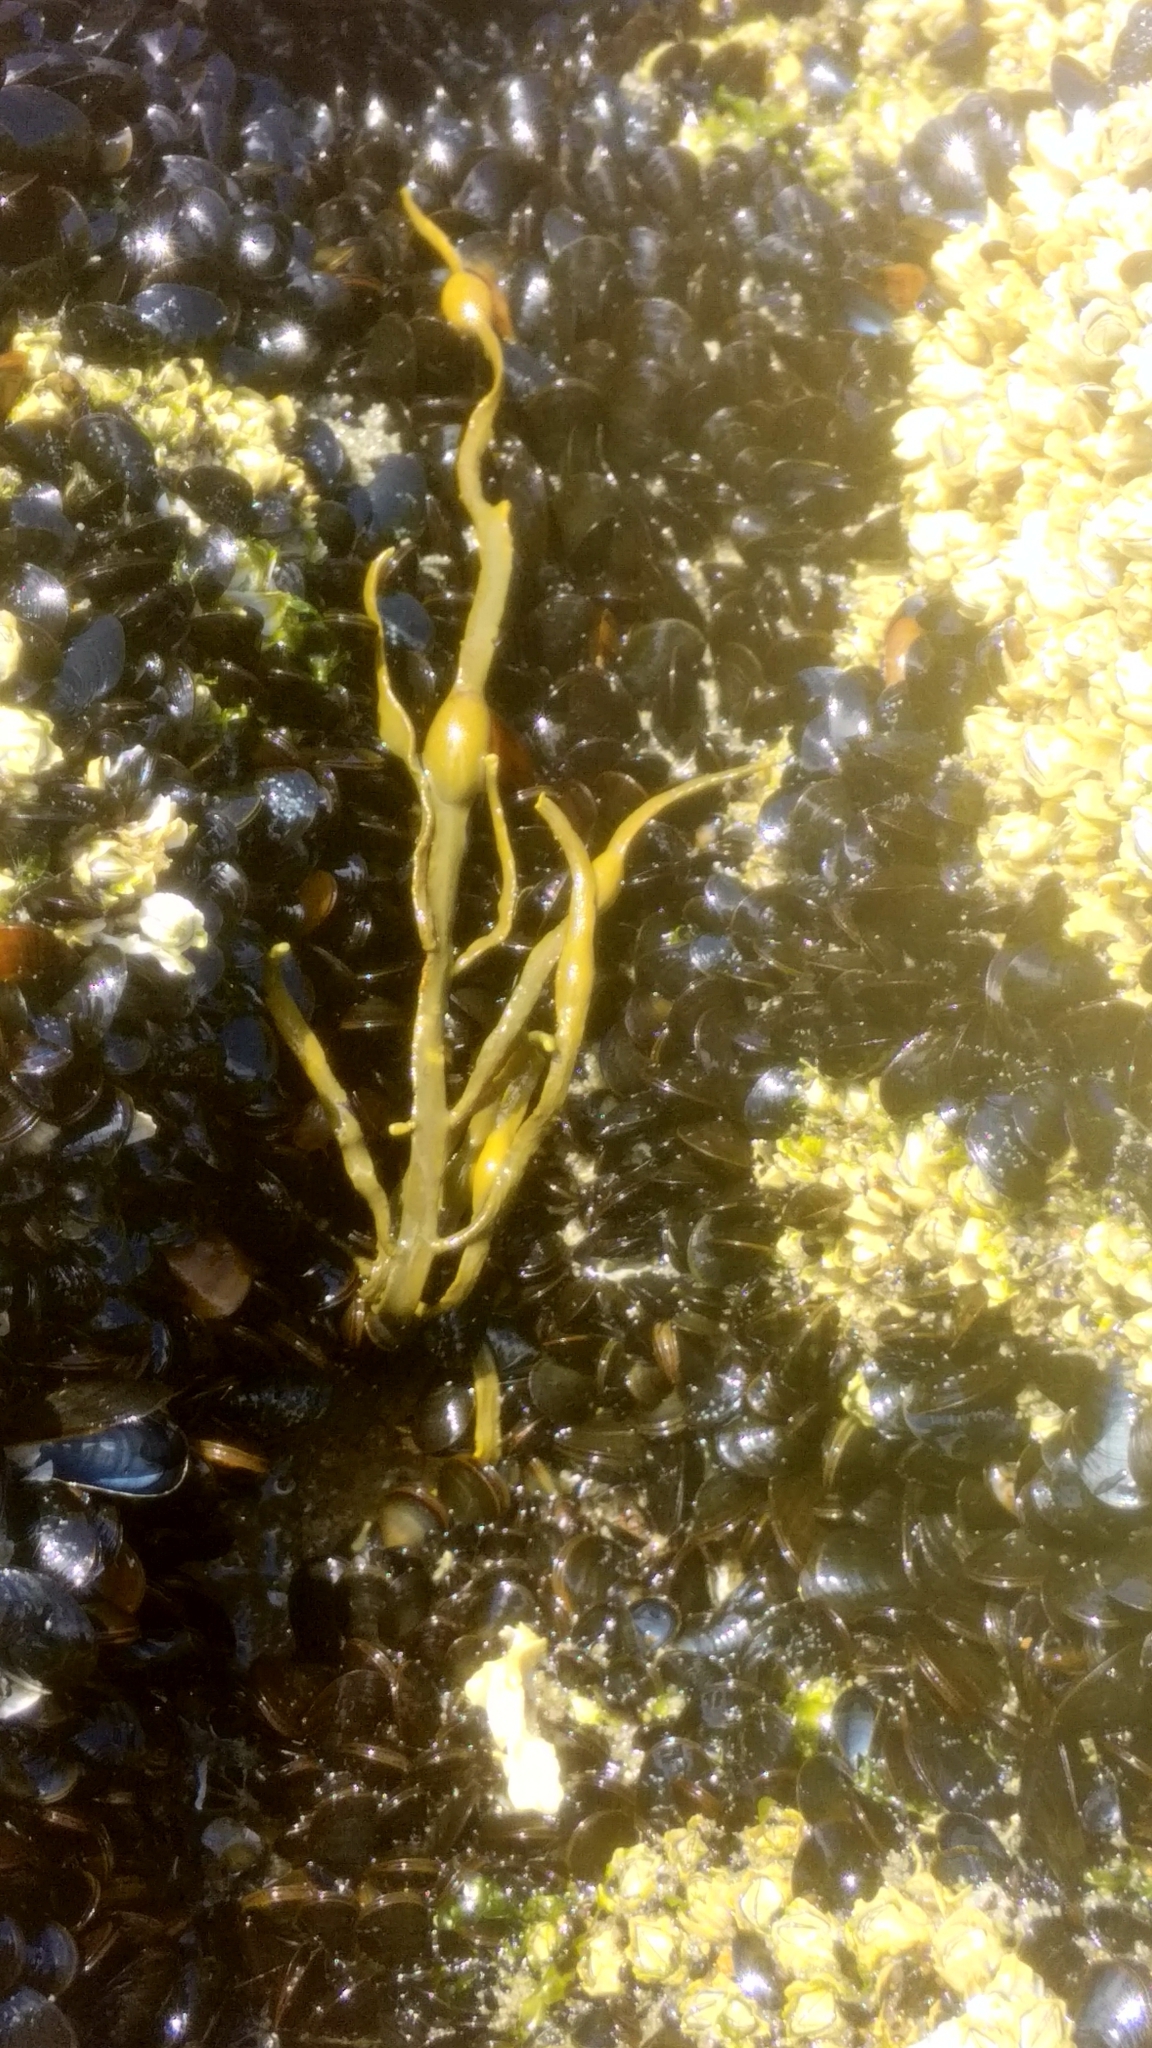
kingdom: Chromista
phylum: Ochrophyta
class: Phaeophyceae
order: Fucales
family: Fucaceae
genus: Ascophyllum
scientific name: Ascophyllum nodosum
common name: Knotted wrack
